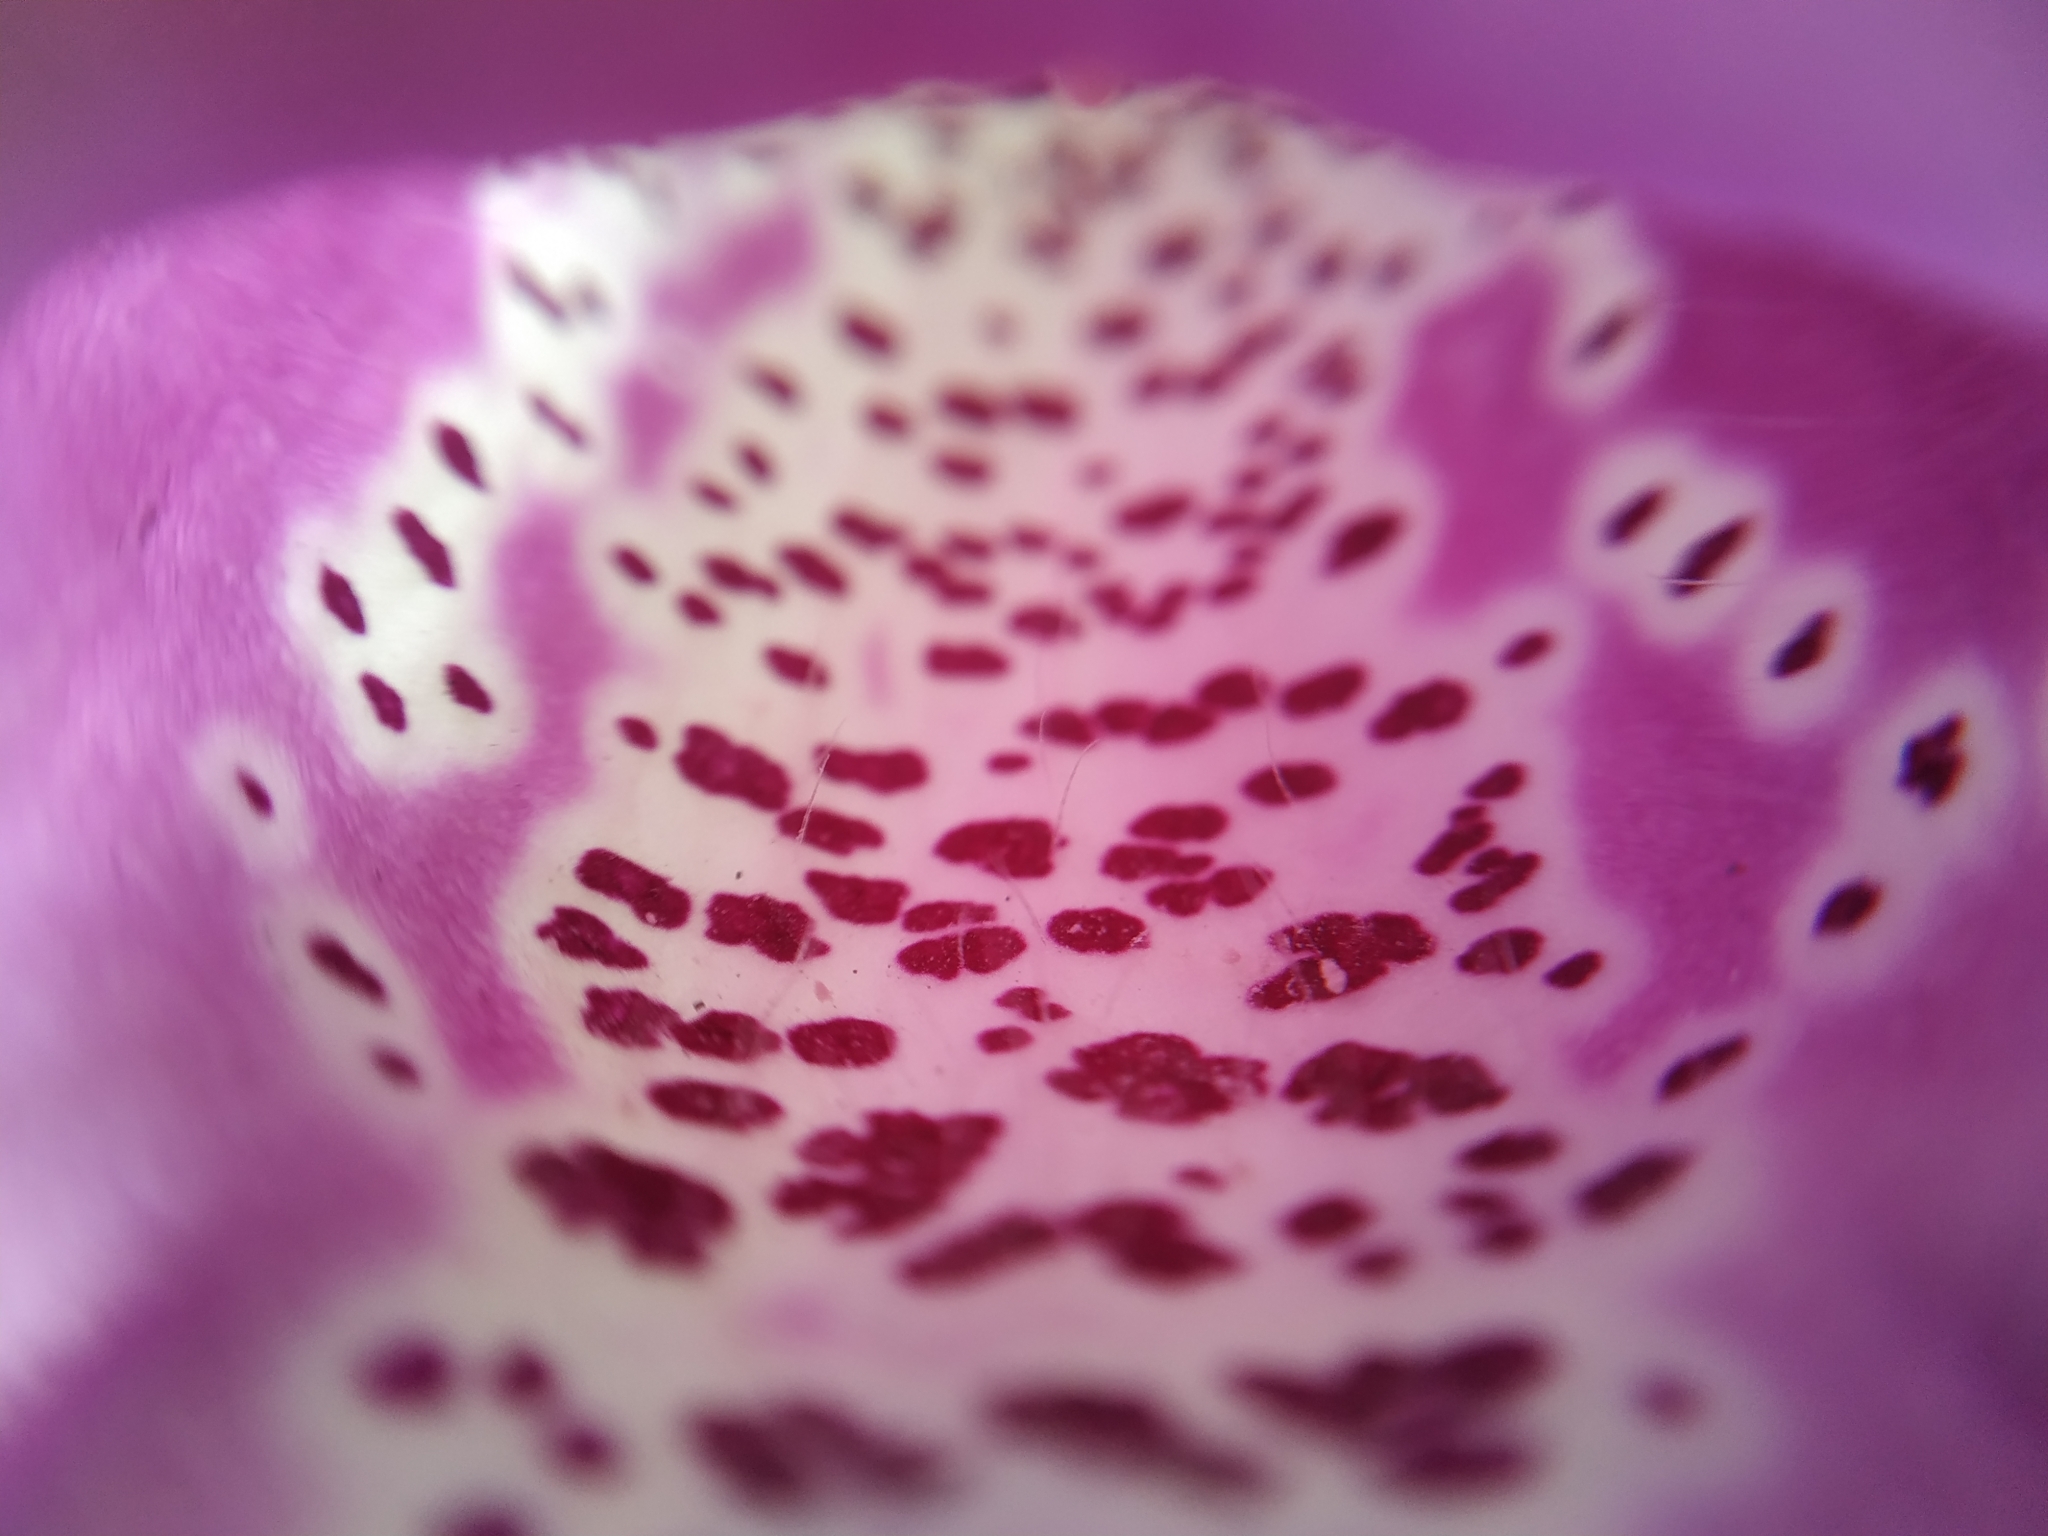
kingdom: Plantae
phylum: Tracheophyta
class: Magnoliopsida
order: Lamiales
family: Plantaginaceae
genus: Digitalis
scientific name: Digitalis purpurea
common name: Foxglove
